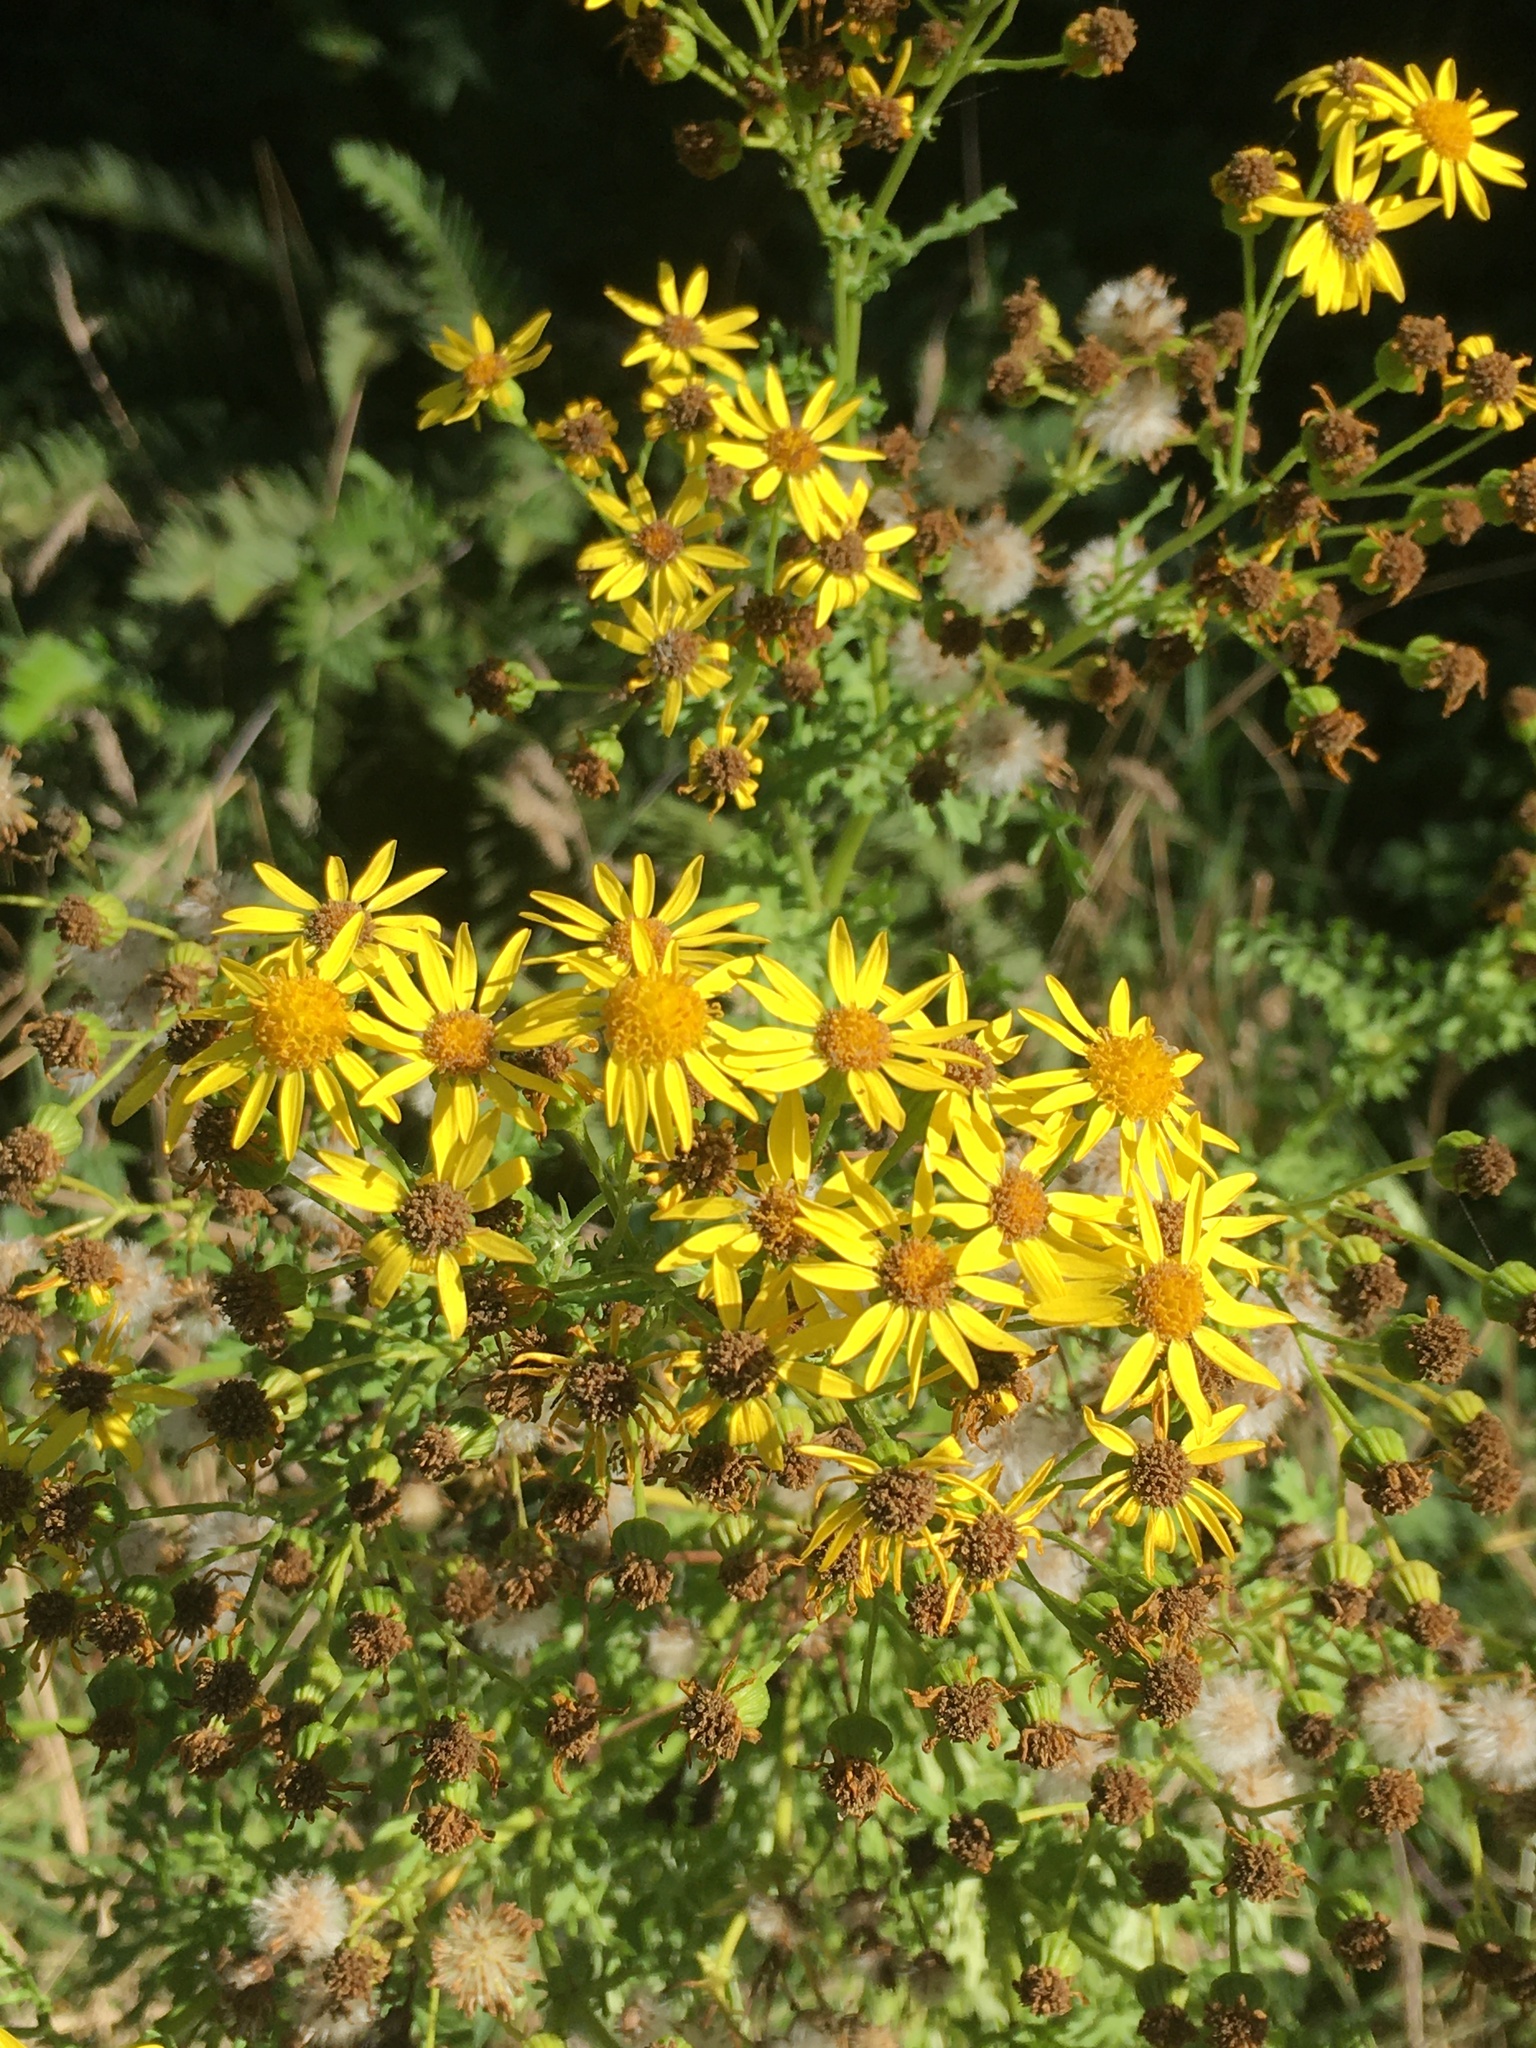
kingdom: Plantae
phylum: Tracheophyta
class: Magnoliopsida
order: Asterales
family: Asteraceae
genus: Jacobaea
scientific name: Jacobaea vulgaris
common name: Stinking willie
